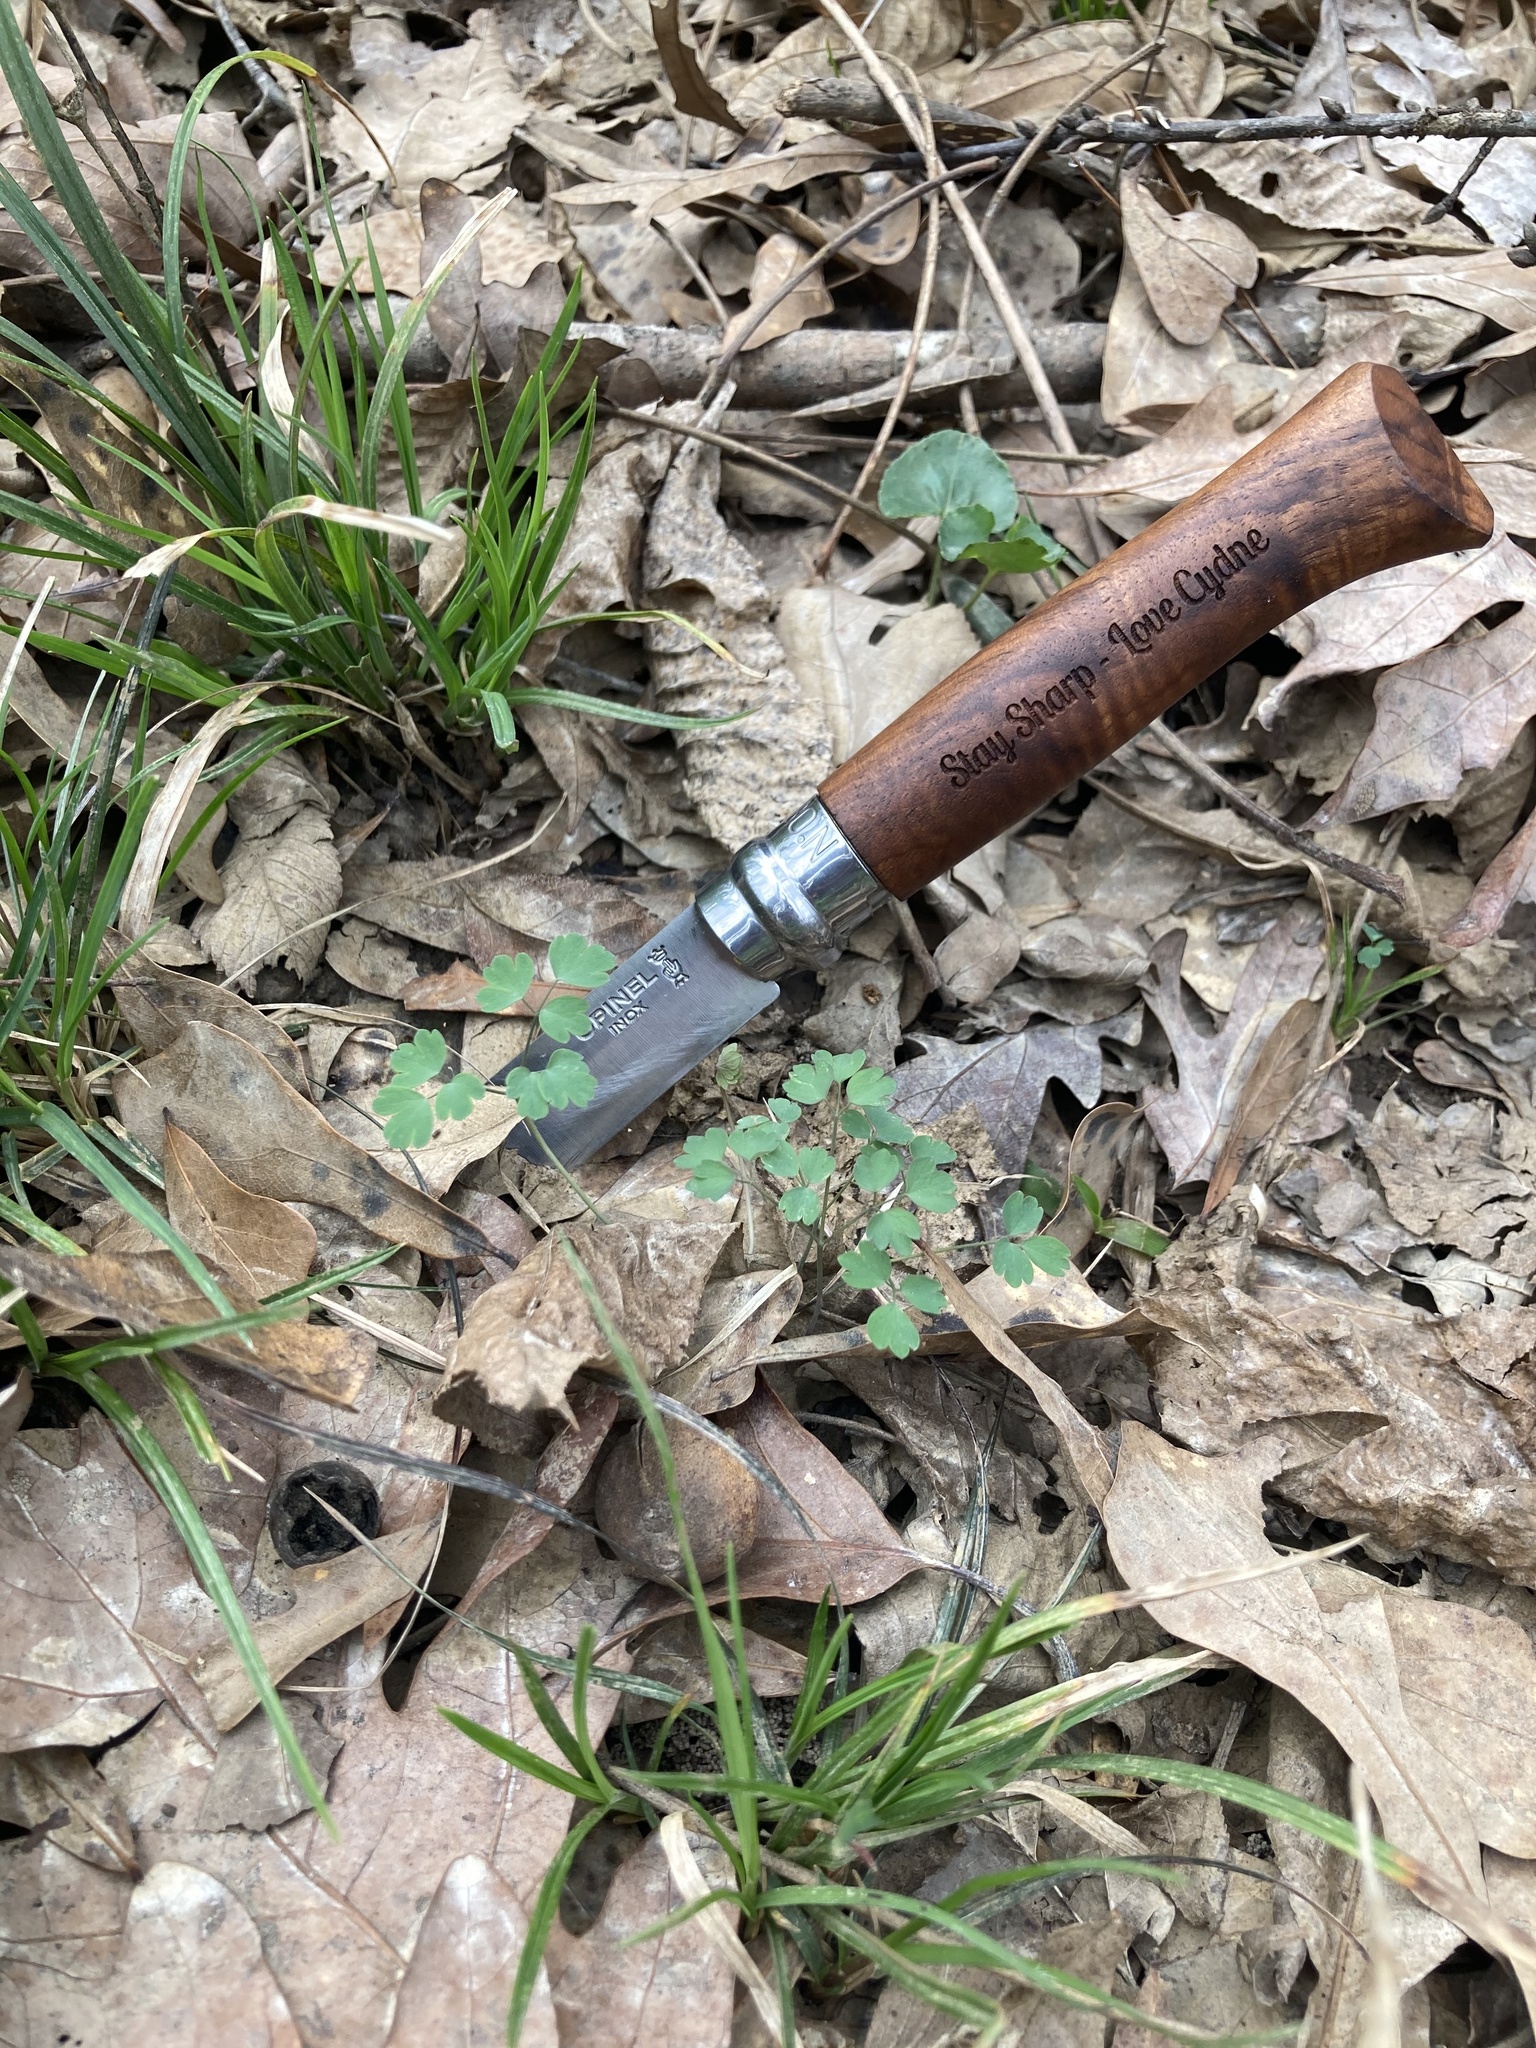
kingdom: Plantae
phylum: Tracheophyta
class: Magnoliopsida
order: Ranunculales
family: Ranunculaceae
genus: Thalictrum
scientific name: Thalictrum arkansanum
